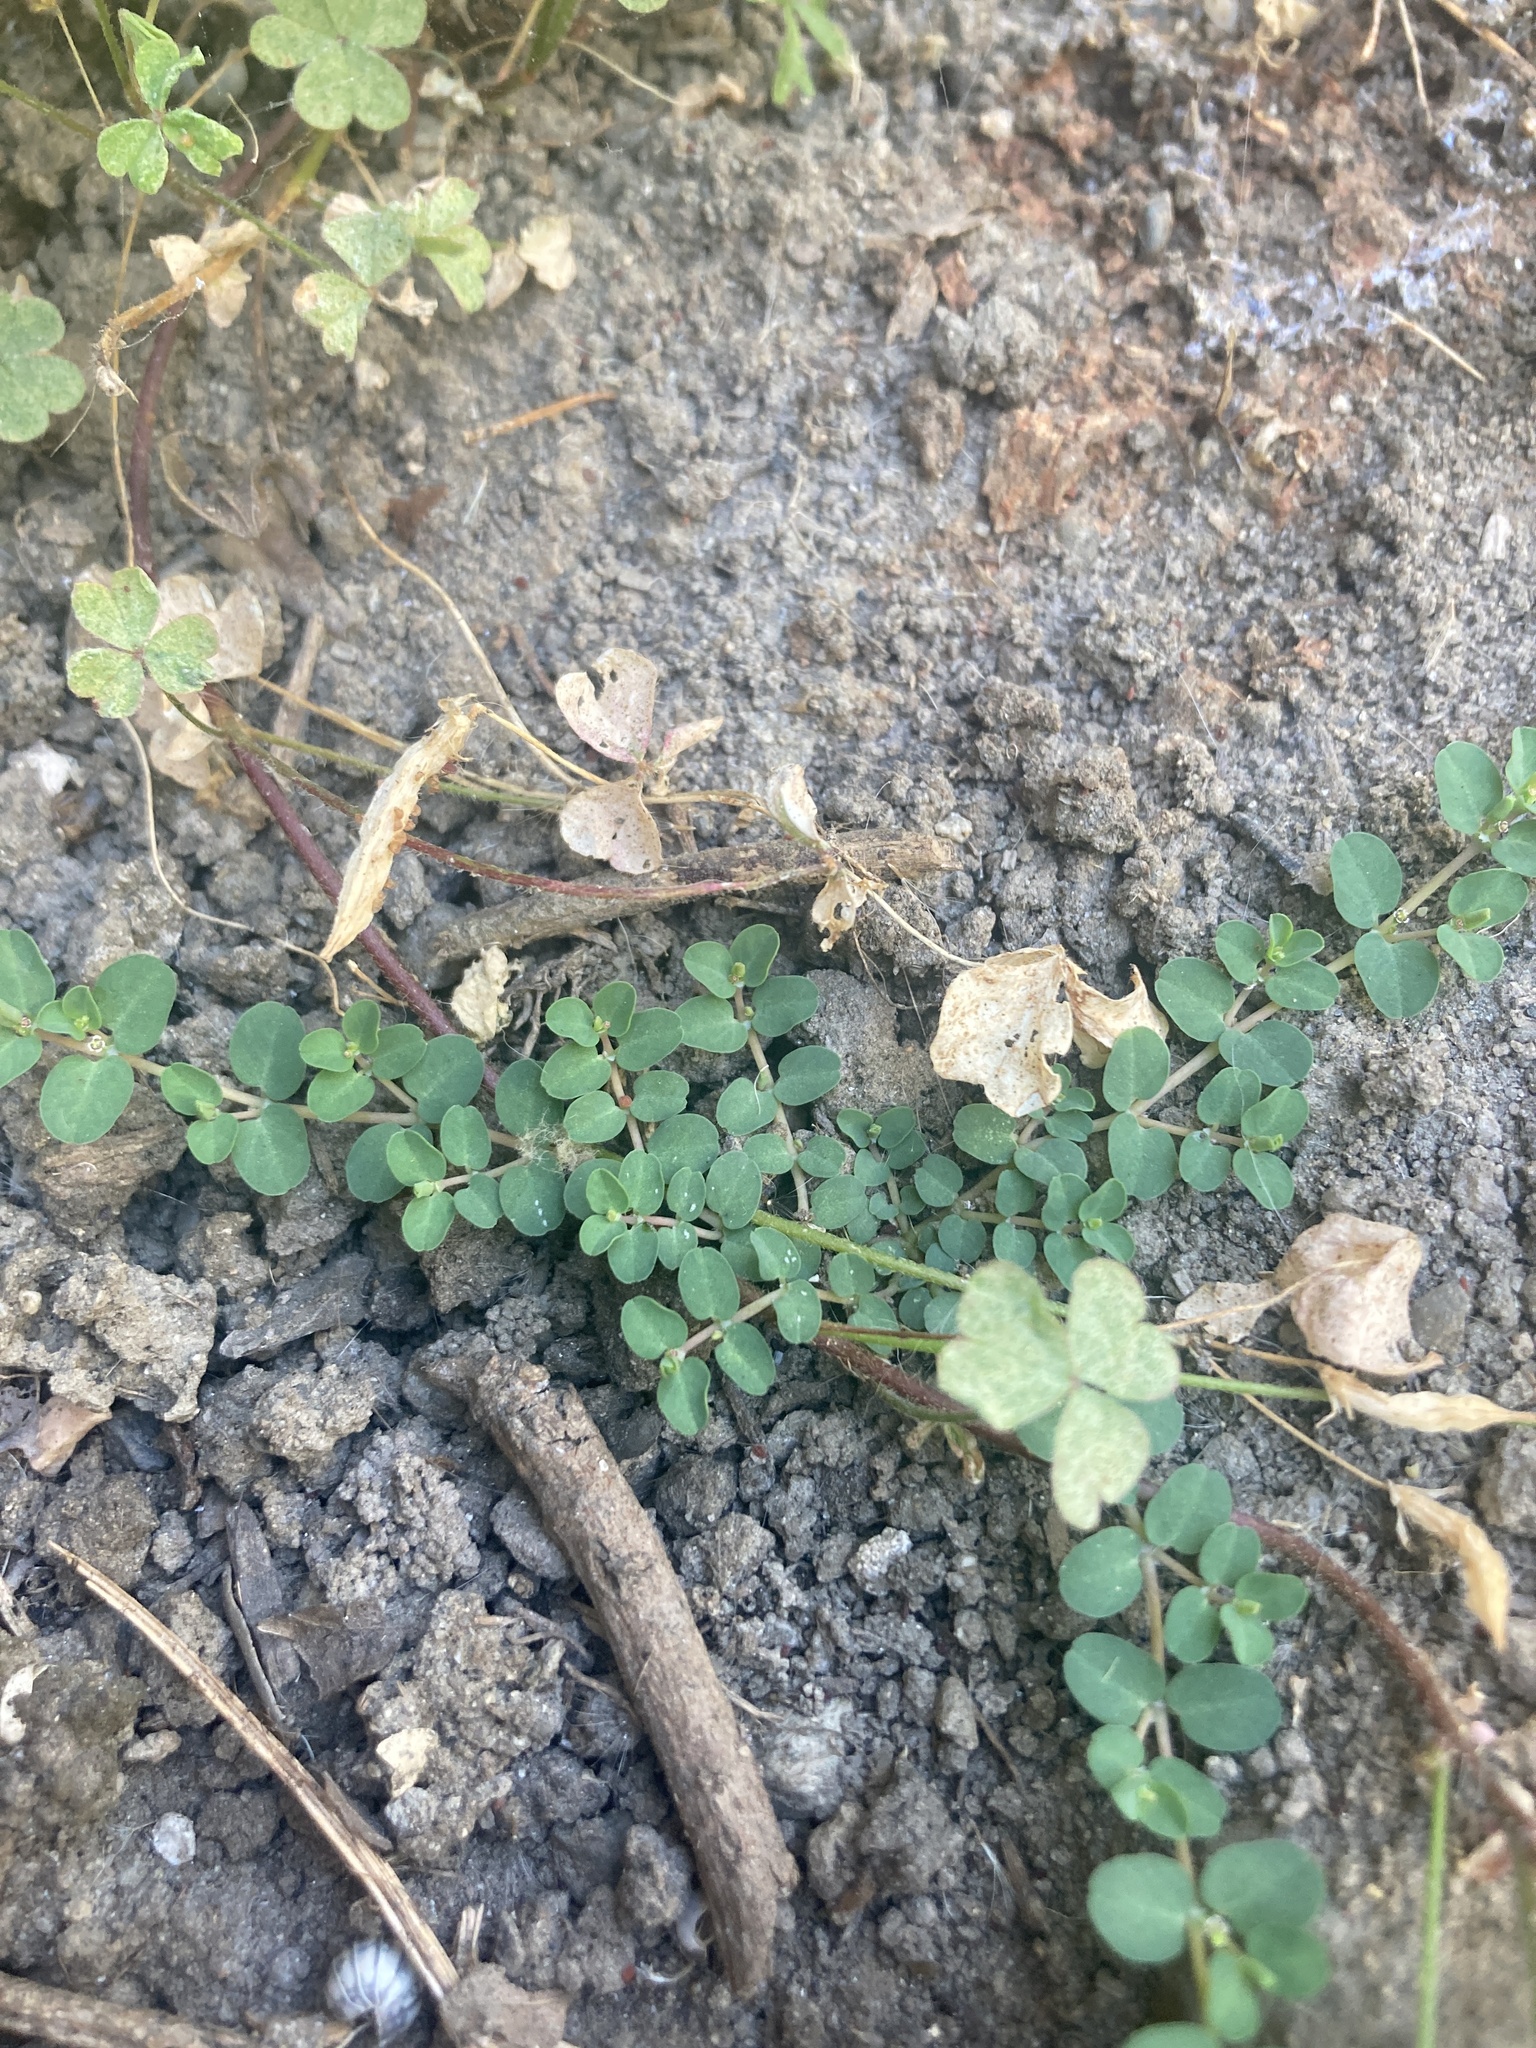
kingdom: Plantae
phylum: Tracheophyta
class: Magnoliopsida
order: Malpighiales
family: Euphorbiaceae
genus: Euphorbia
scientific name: Euphorbia serpens
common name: Matted sandmat
